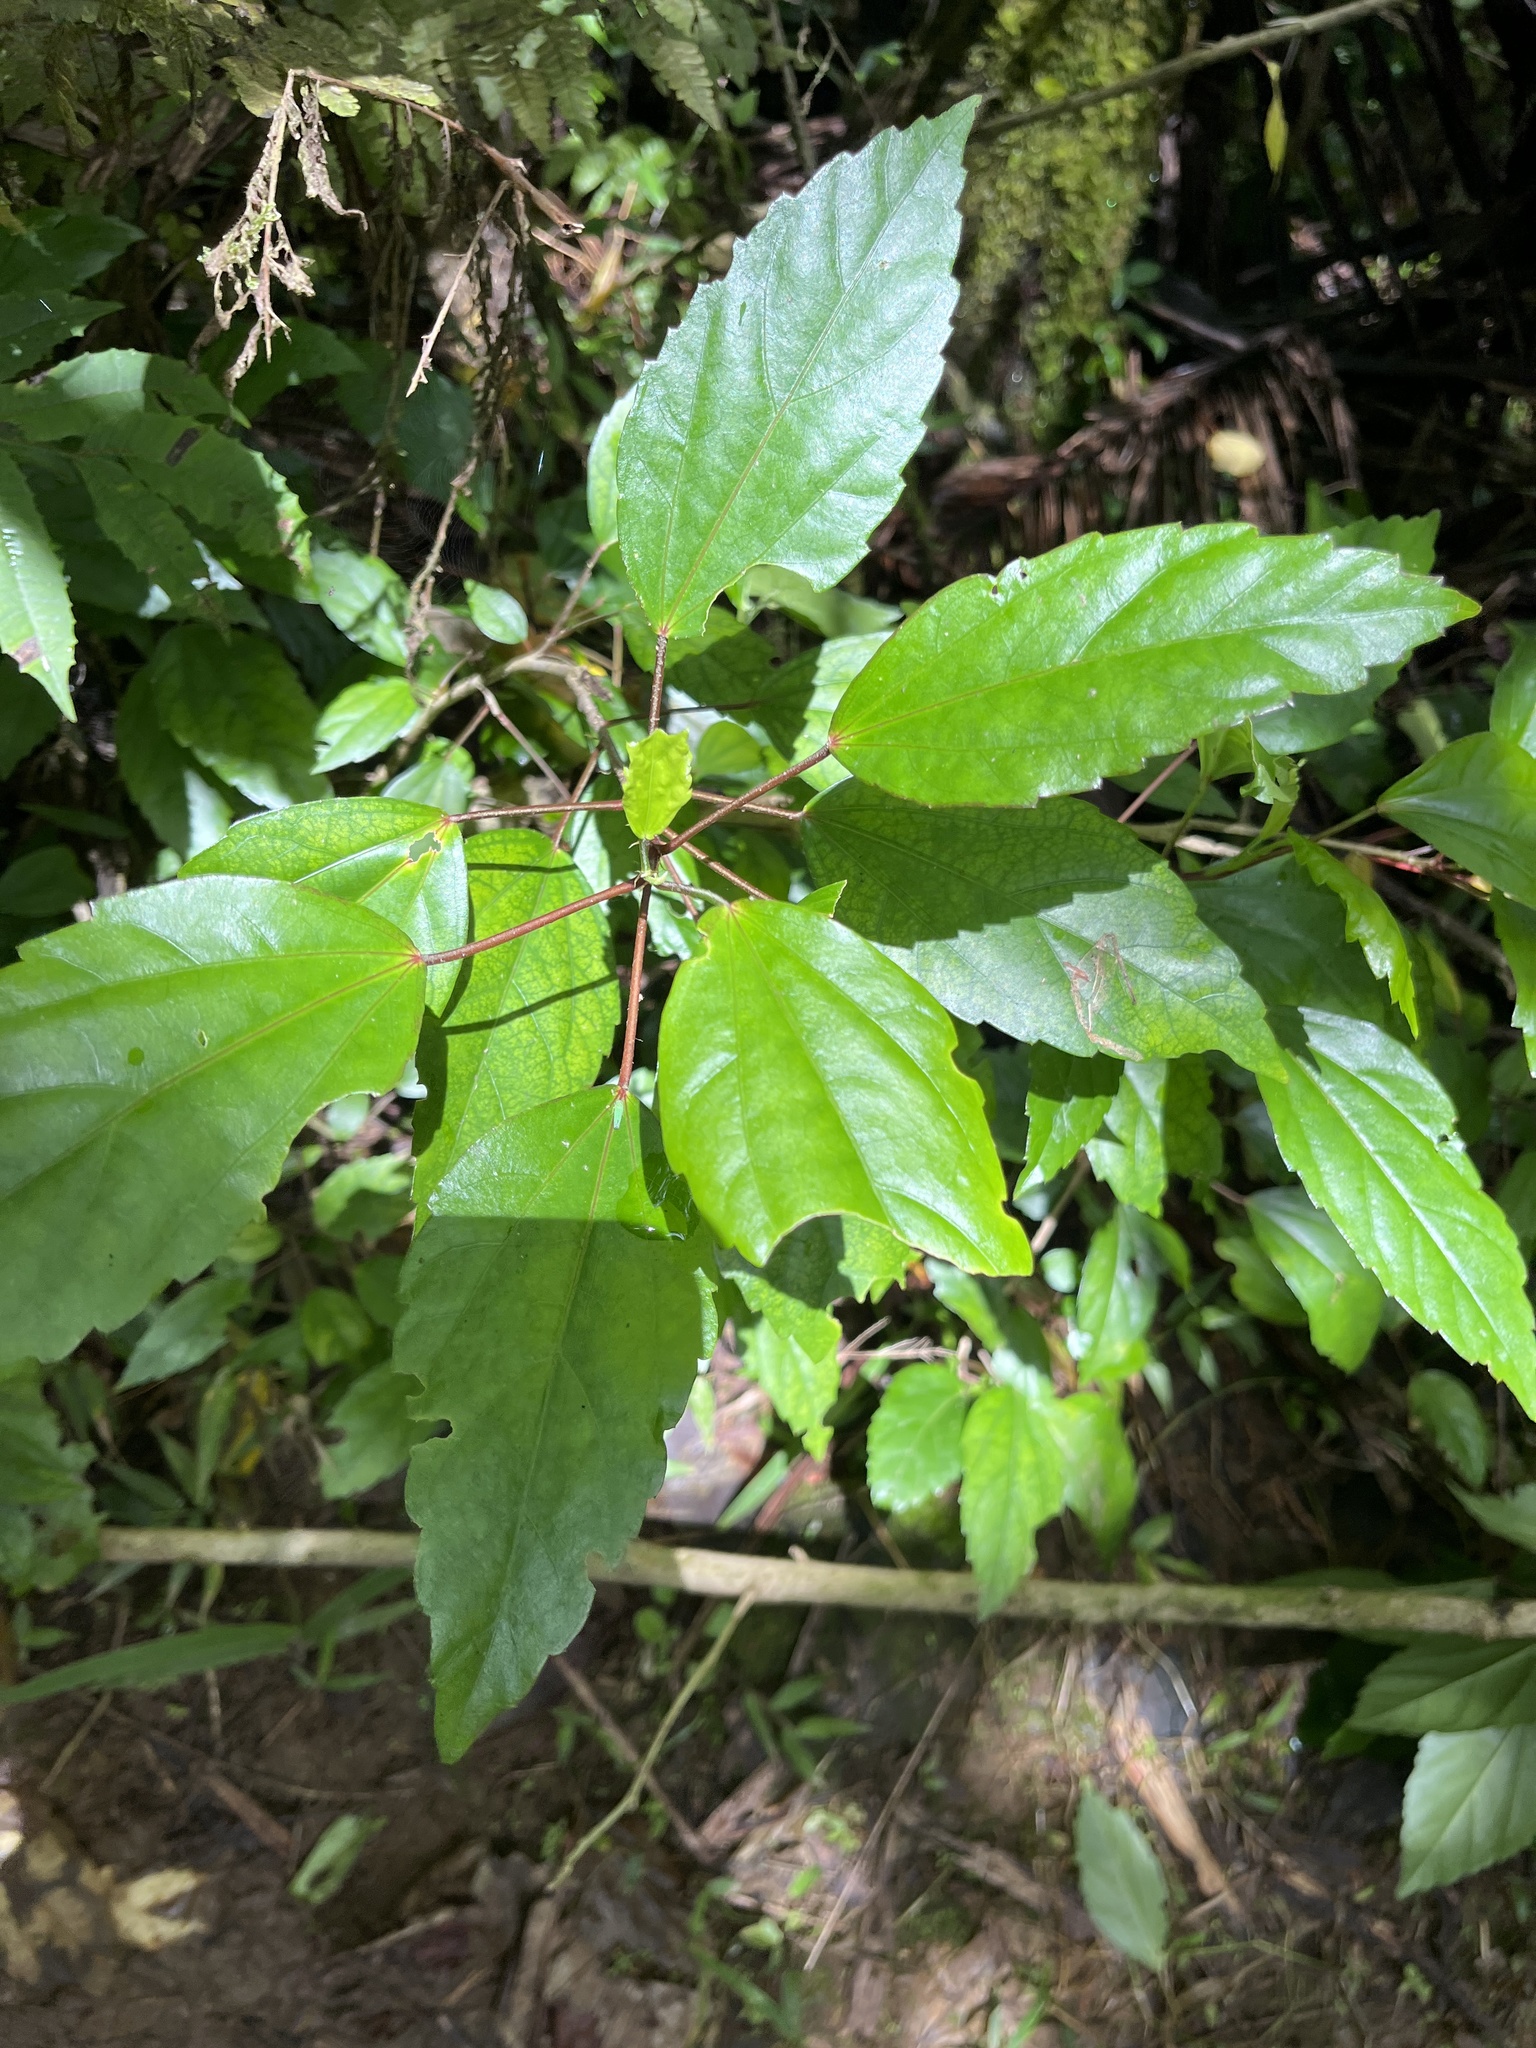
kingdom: Plantae
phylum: Tracheophyta
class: Magnoliopsida
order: Malvales
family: Malvaceae
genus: Hibiscus
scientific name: Hibiscus archeri
